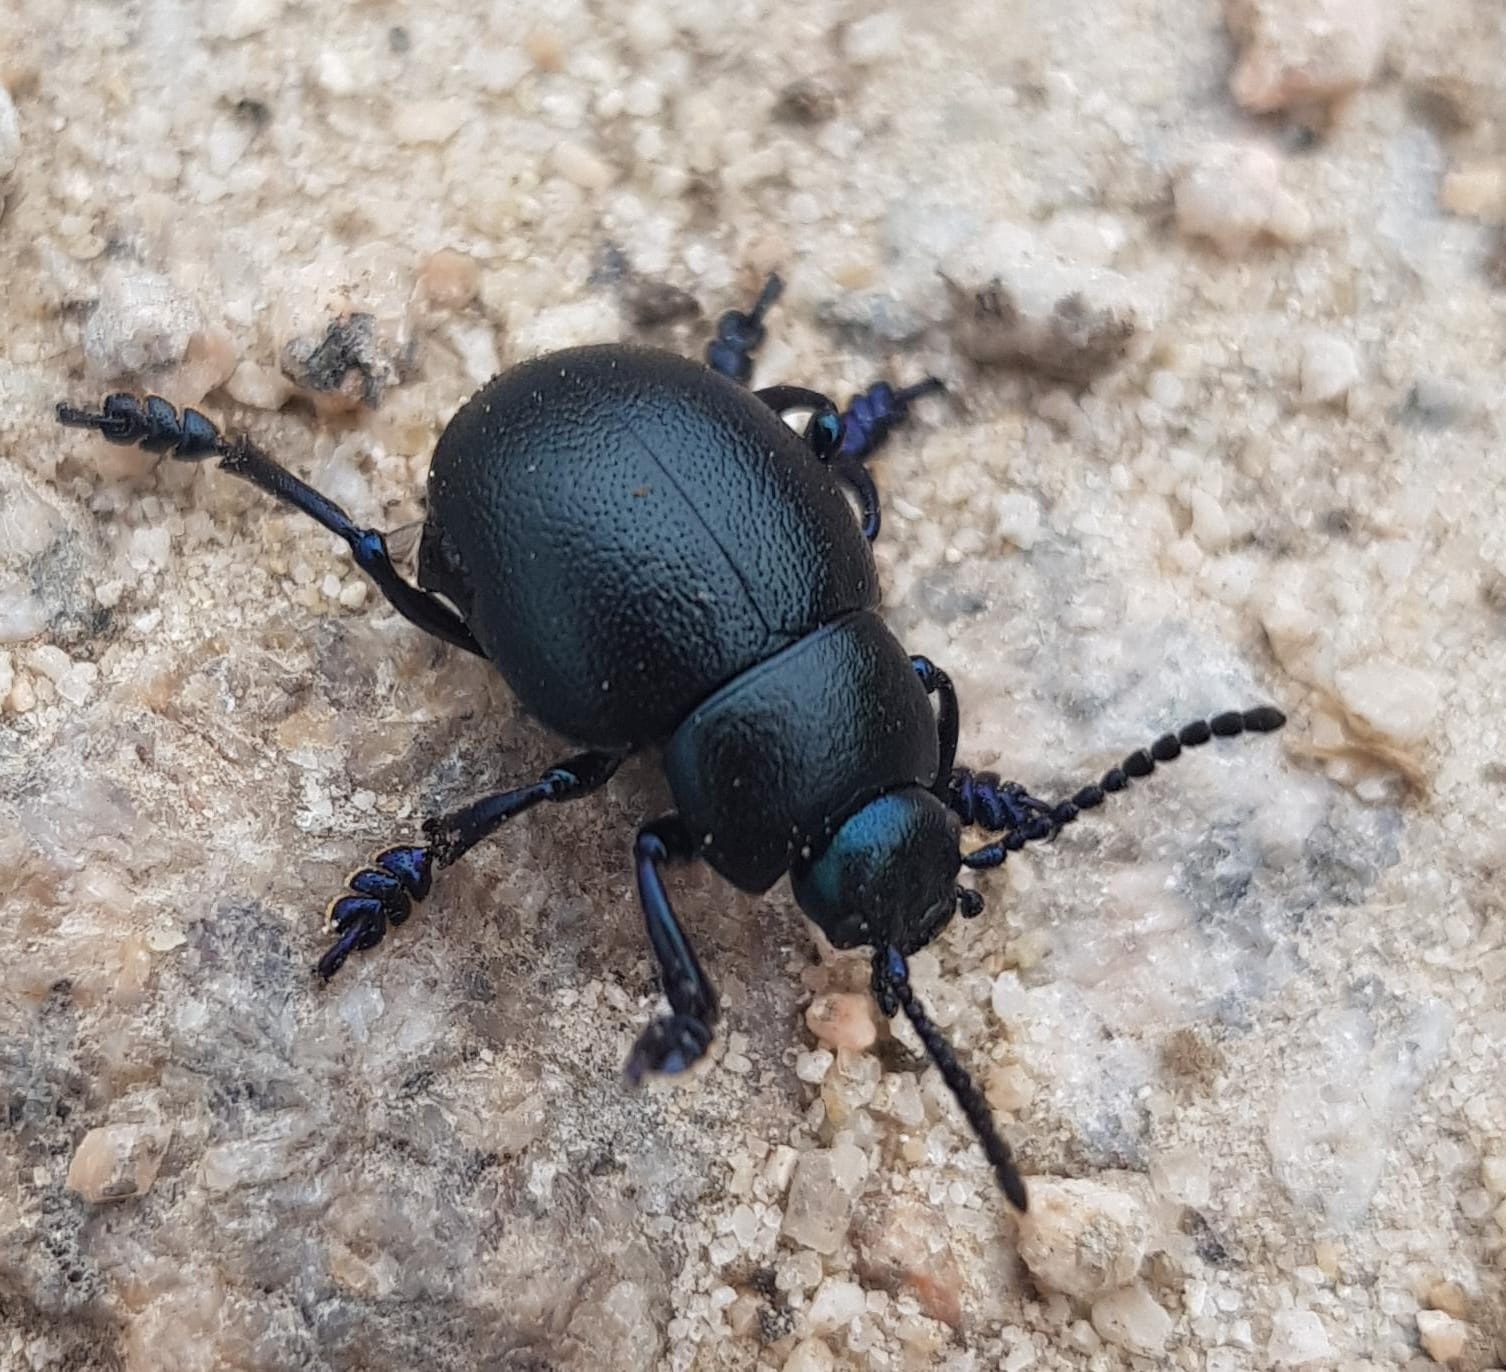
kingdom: Animalia
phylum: Arthropoda
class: Insecta
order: Coleoptera
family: Chrysomelidae
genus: Timarcha
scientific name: Timarcha goettingensis
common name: Small bloody-nosed beetle
